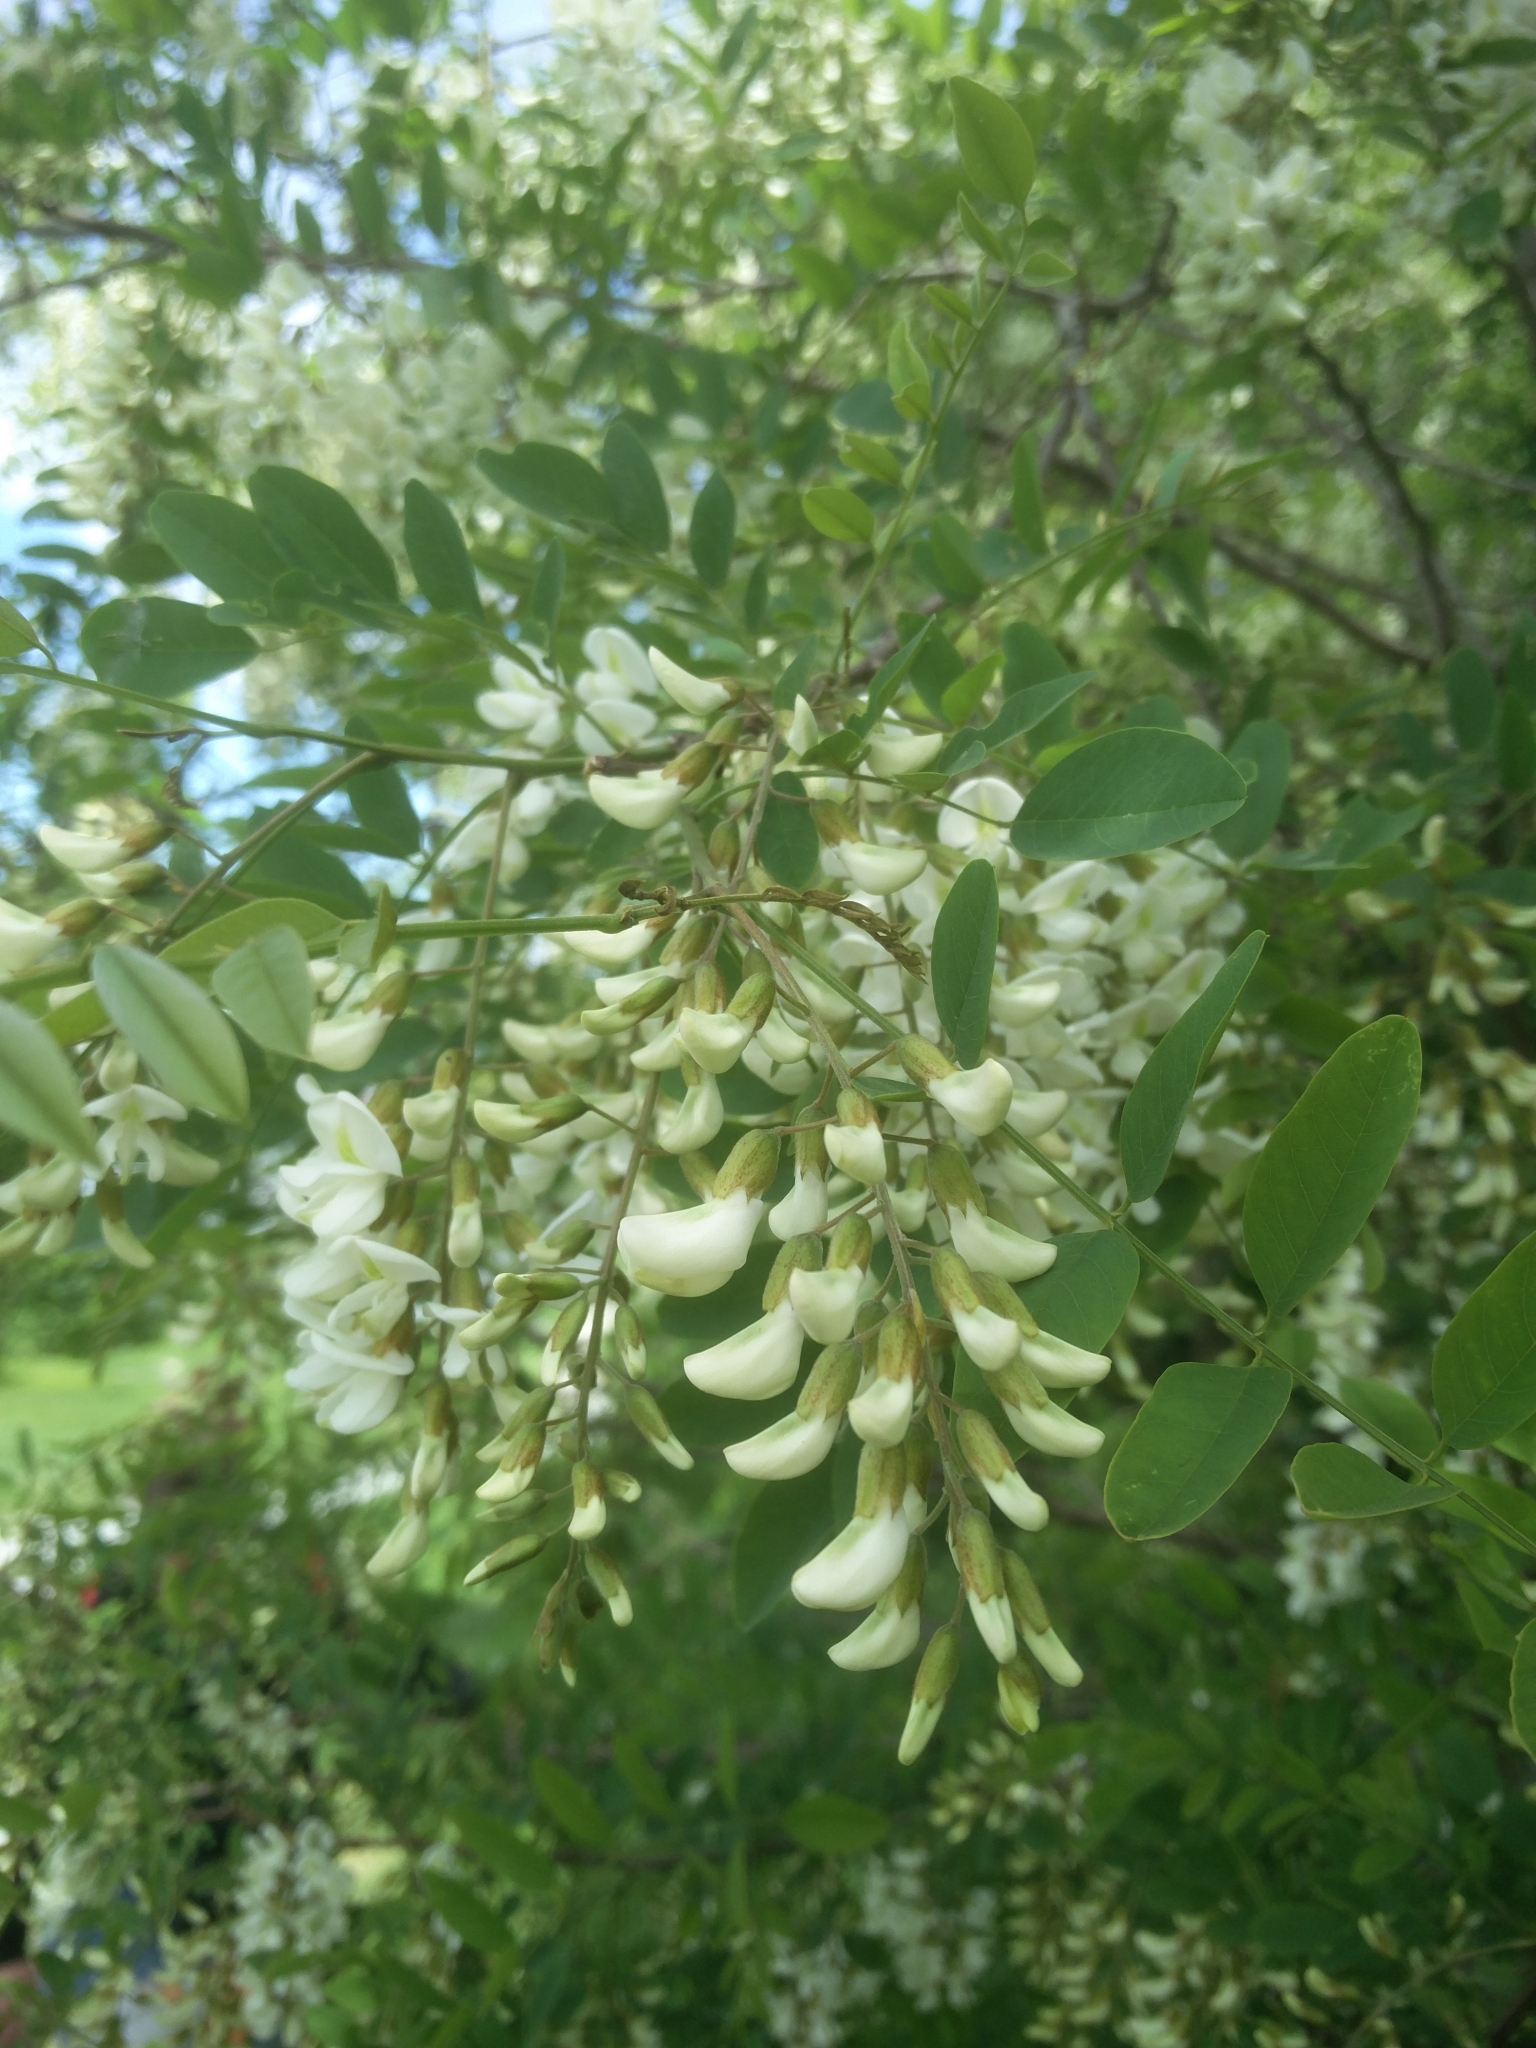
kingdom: Plantae
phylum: Tracheophyta
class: Magnoliopsida
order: Fabales
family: Fabaceae
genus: Robinia
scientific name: Robinia pseudoacacia
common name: Black locust
